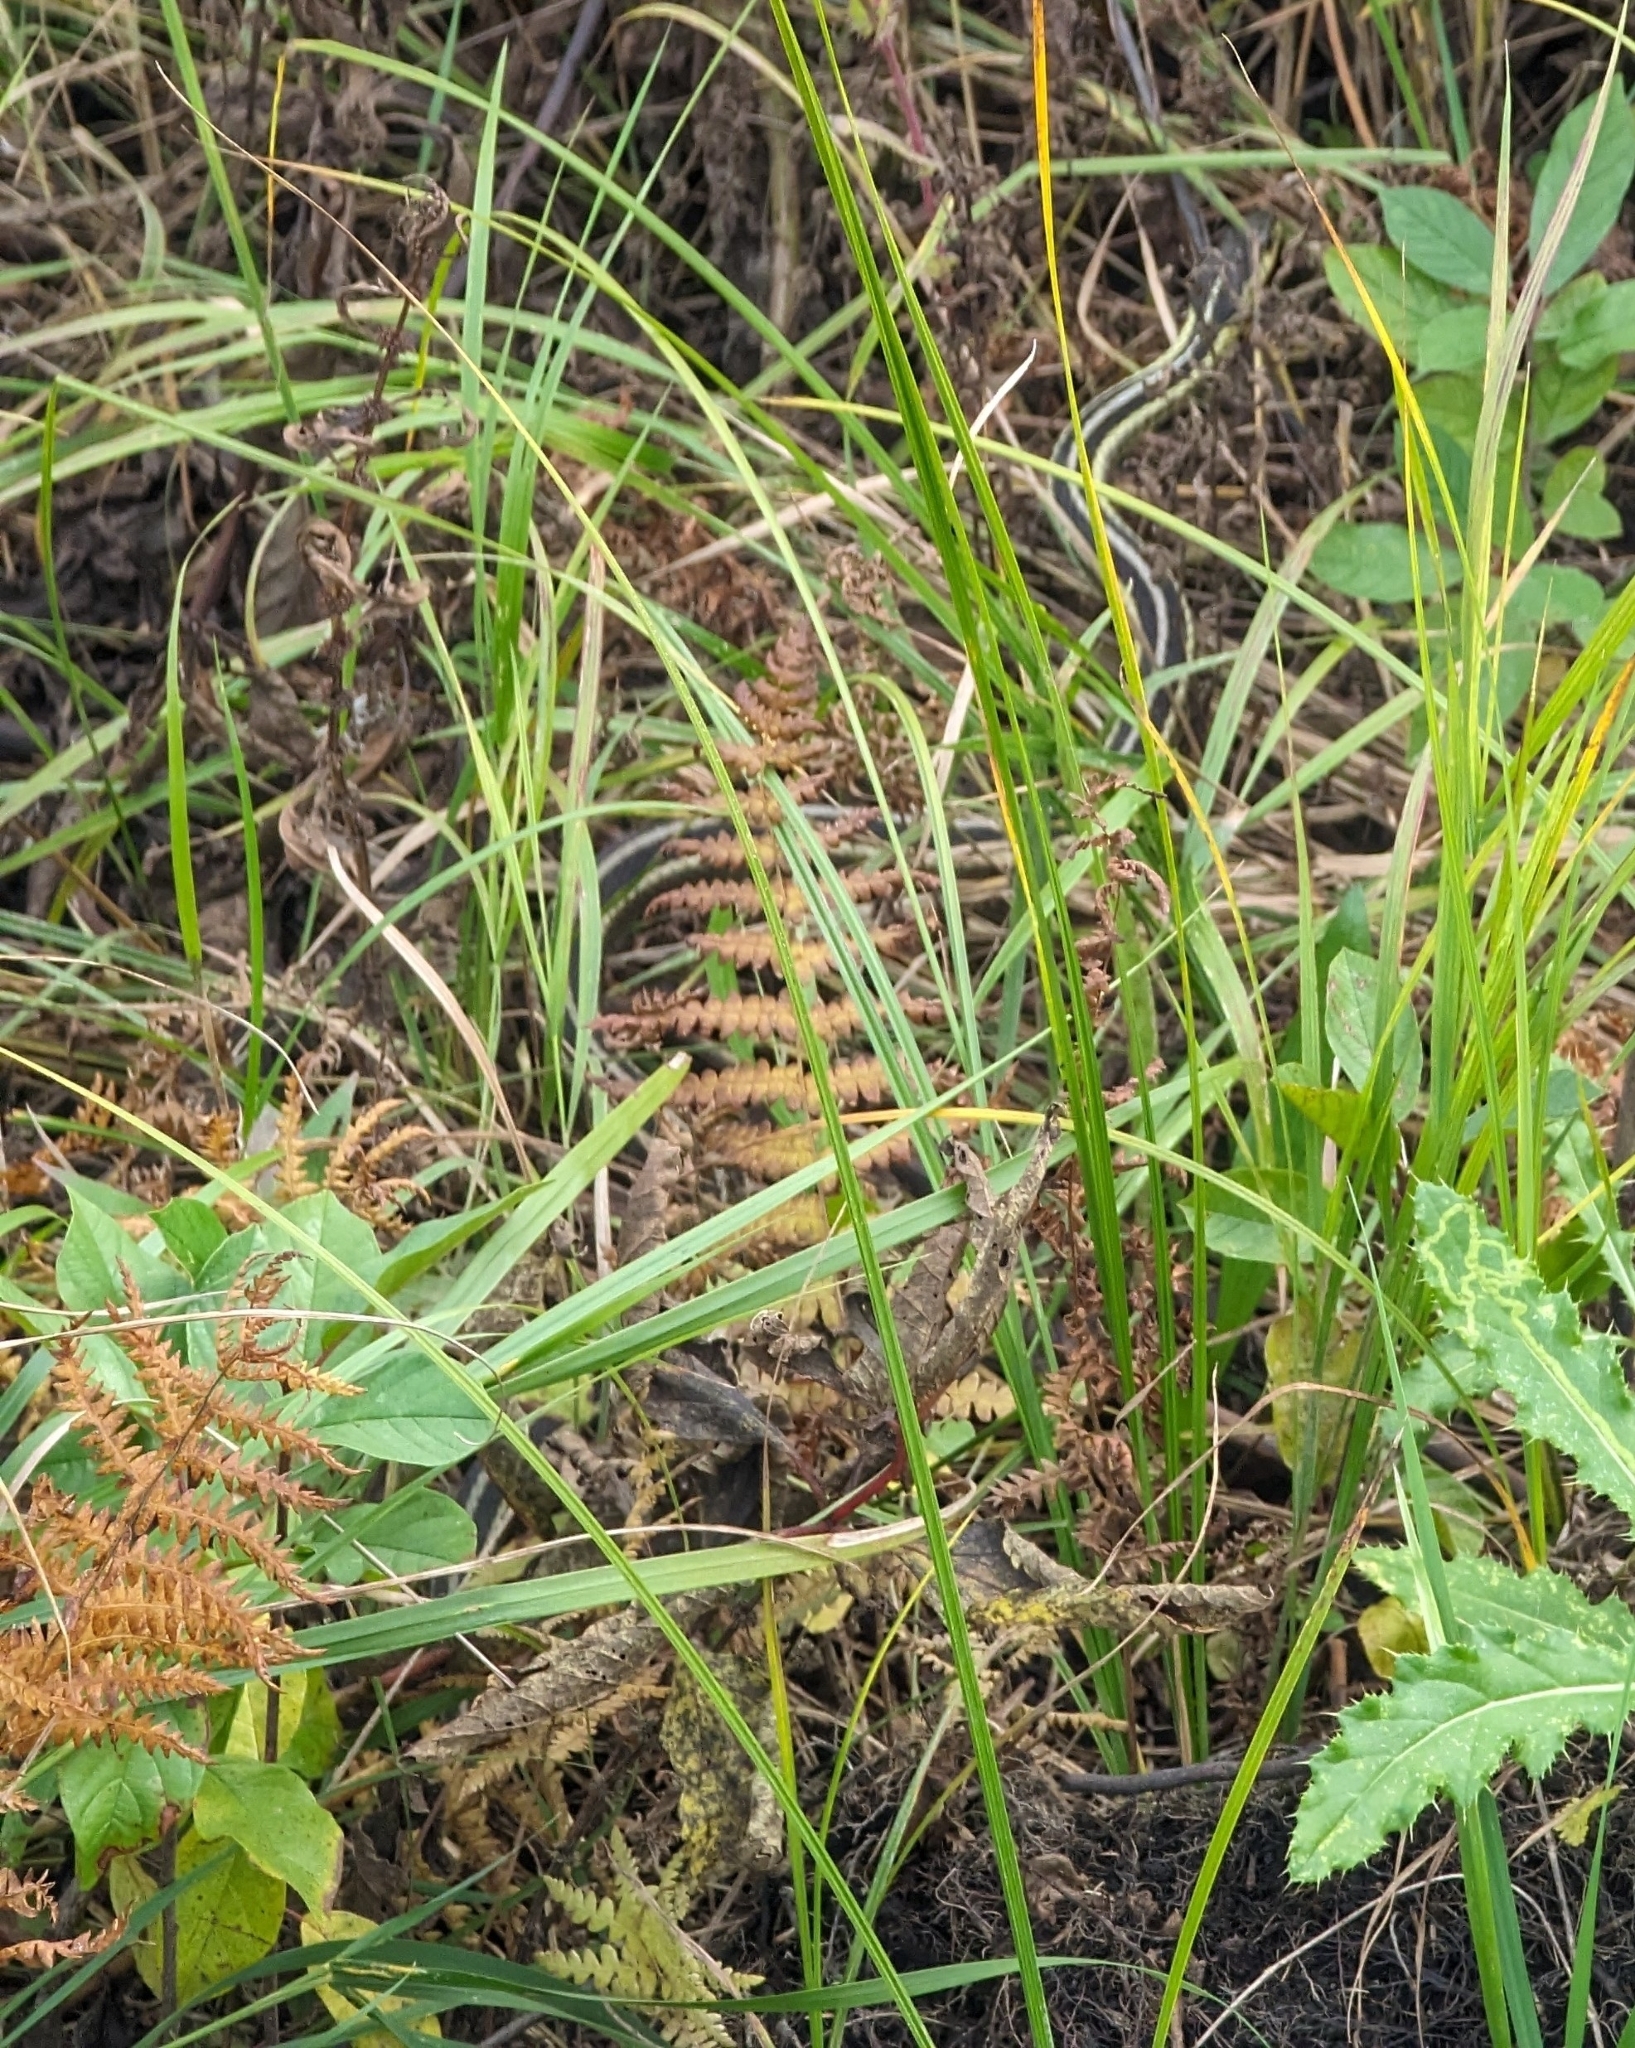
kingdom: Animalia
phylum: Chordata
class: Squamata
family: Colubridae
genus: Thamnophis
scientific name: Thamnophis sirtalis
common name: Common garter snake
